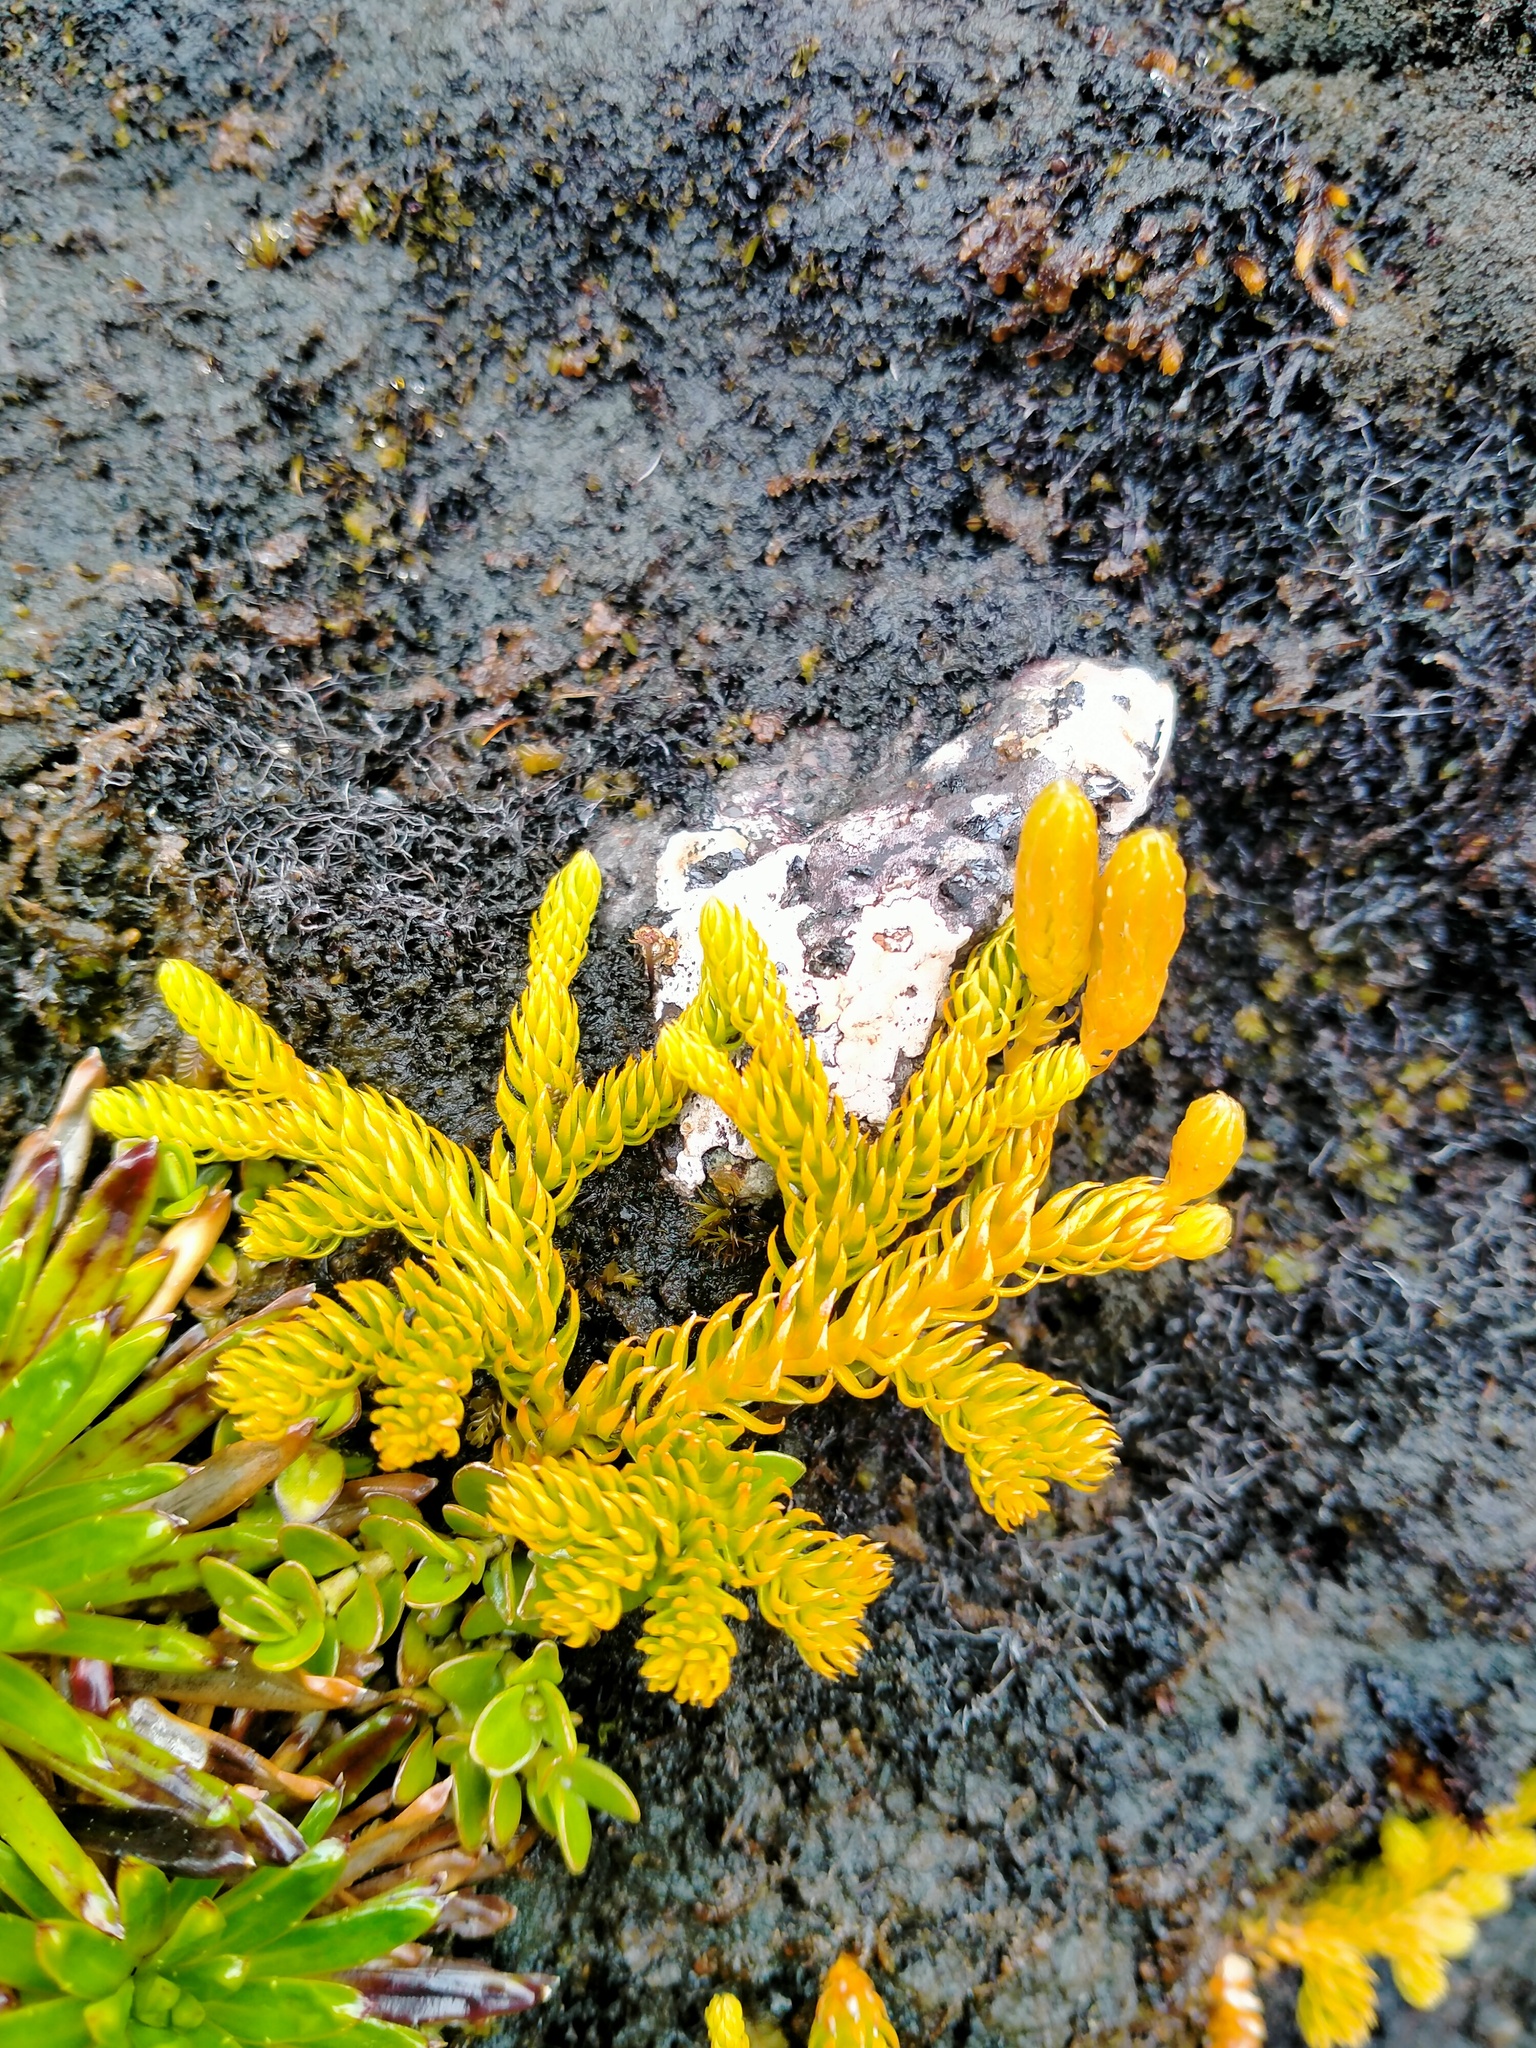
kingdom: Plantae
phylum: Tracheophyta
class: Lycopodiopsida
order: Lycopodiales
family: Lycopodiaceae
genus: Austrolycopodium
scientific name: Austrolycopodium fastigiatum
